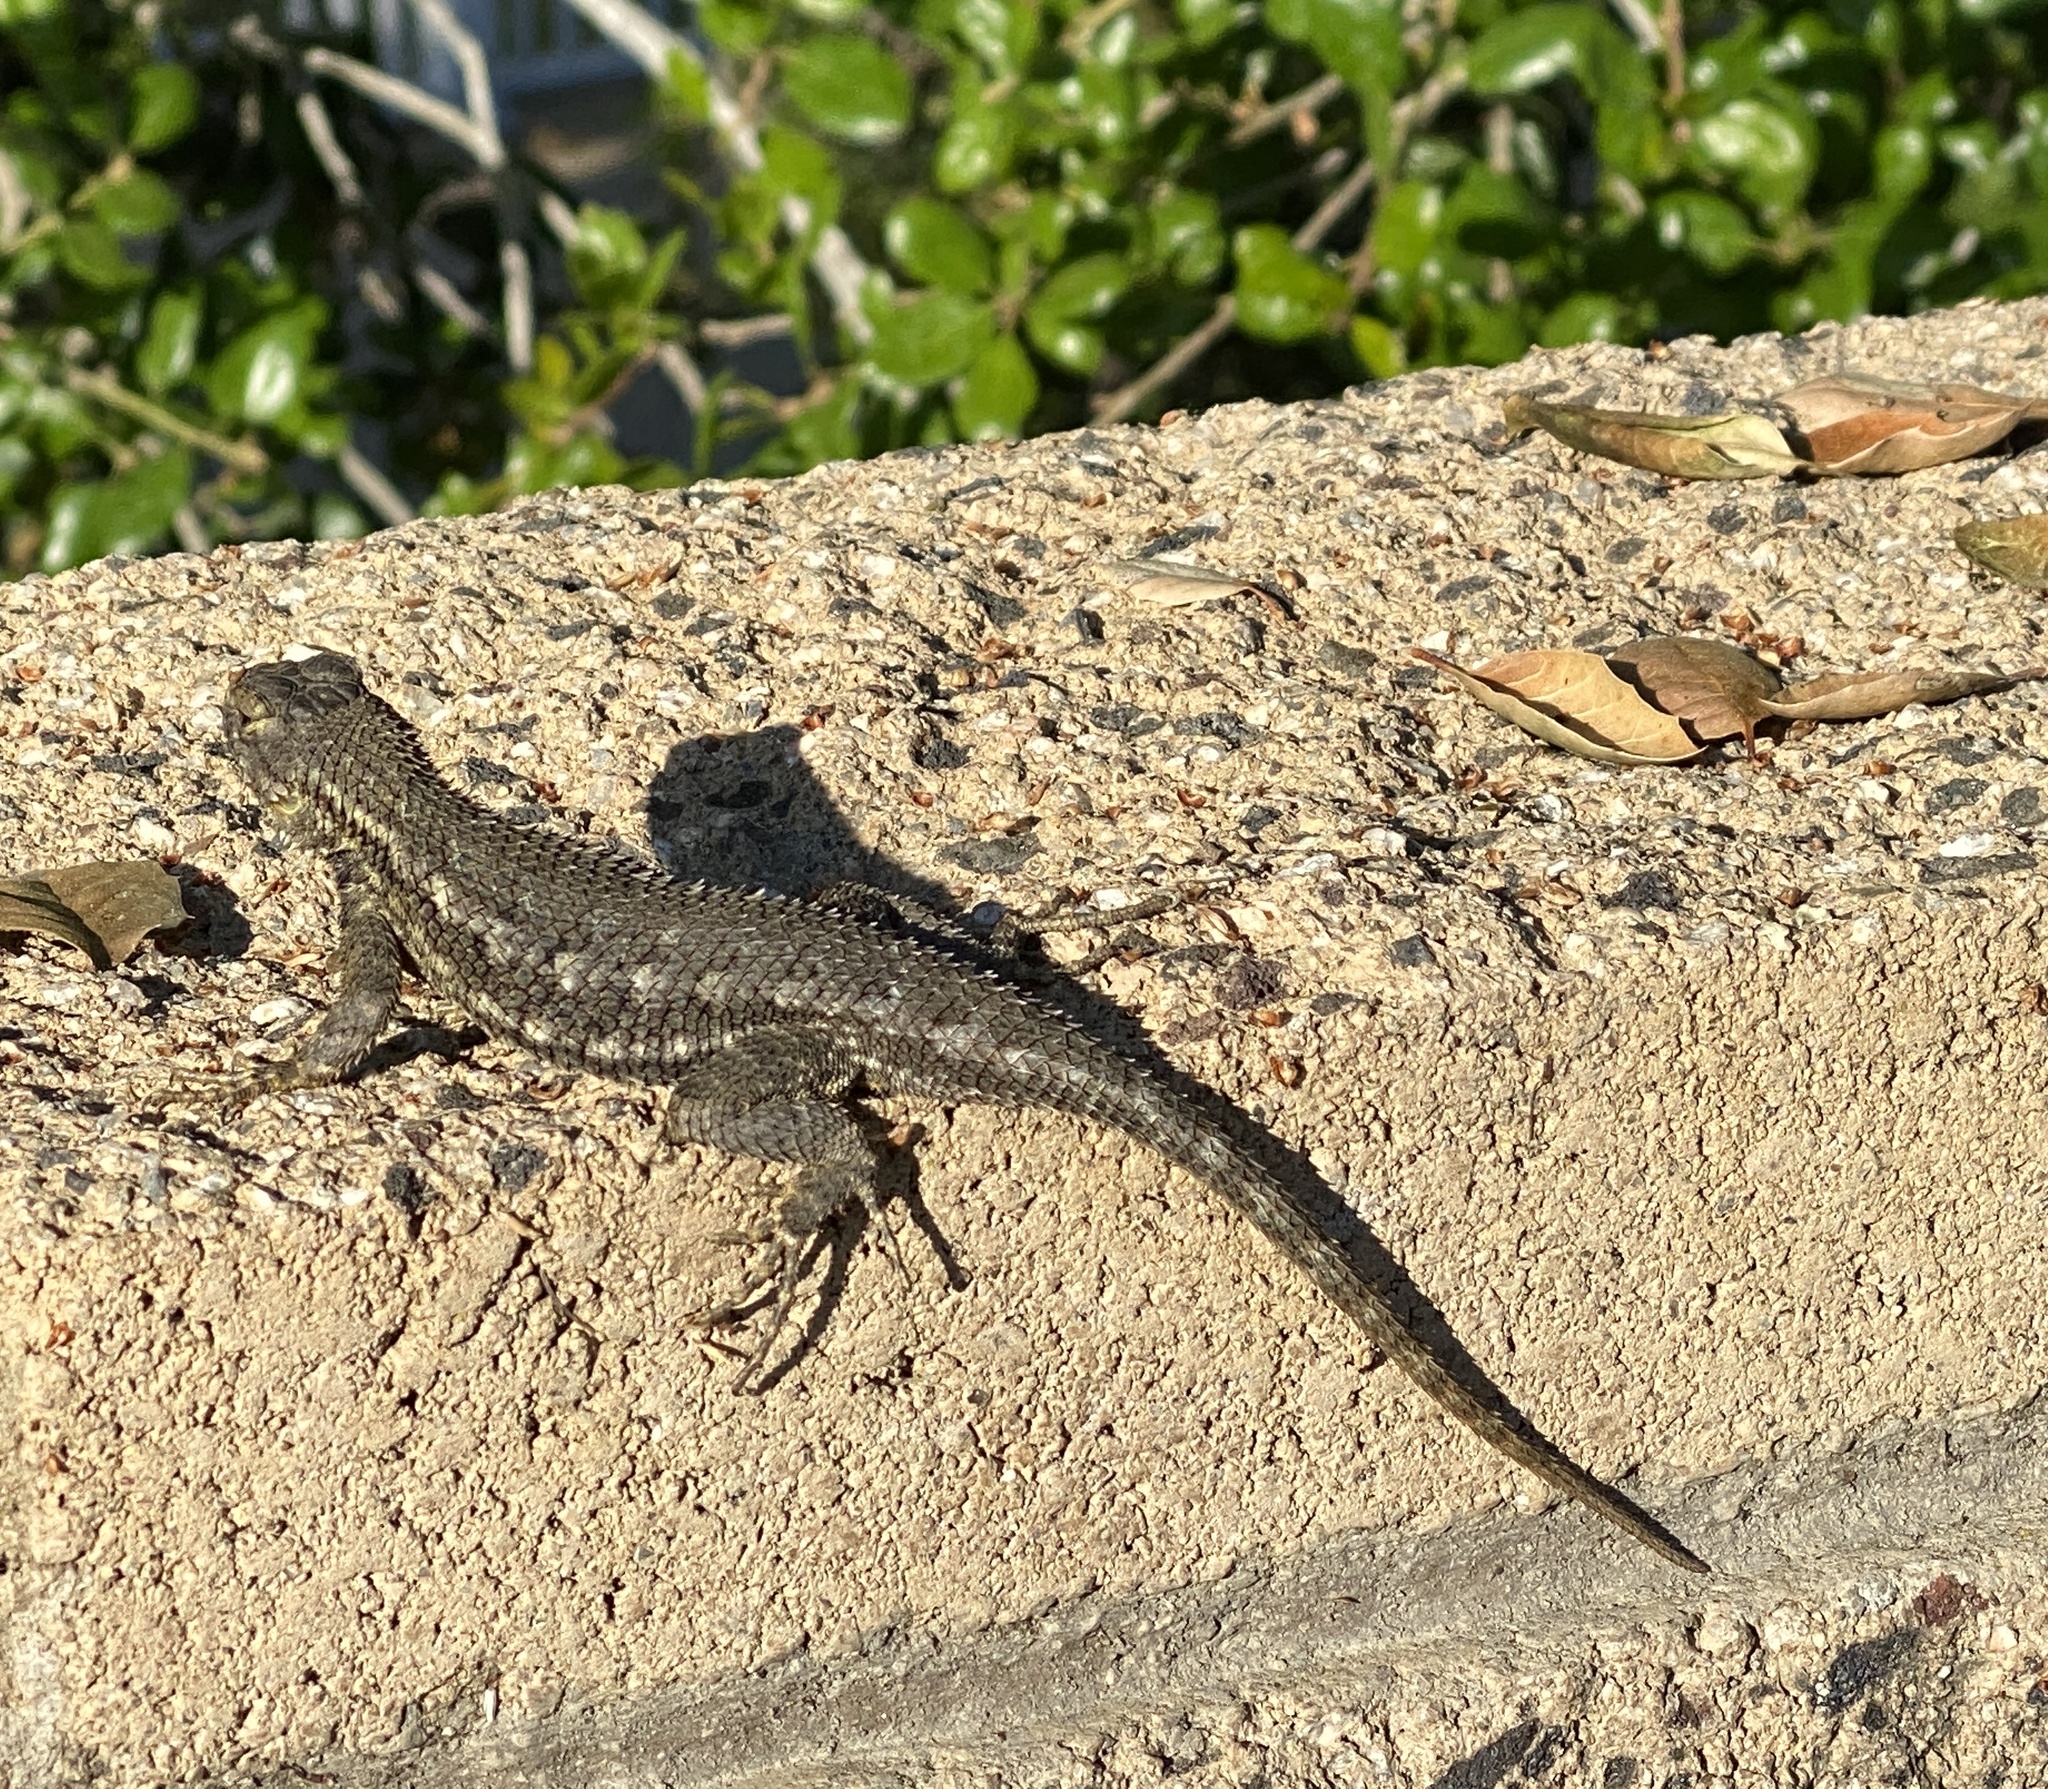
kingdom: Animalia
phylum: Chordata
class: Squamata
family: Phrynosomatidae
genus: Sceloporus
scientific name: Sceloporus occidentalis
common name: Western fence lizard
